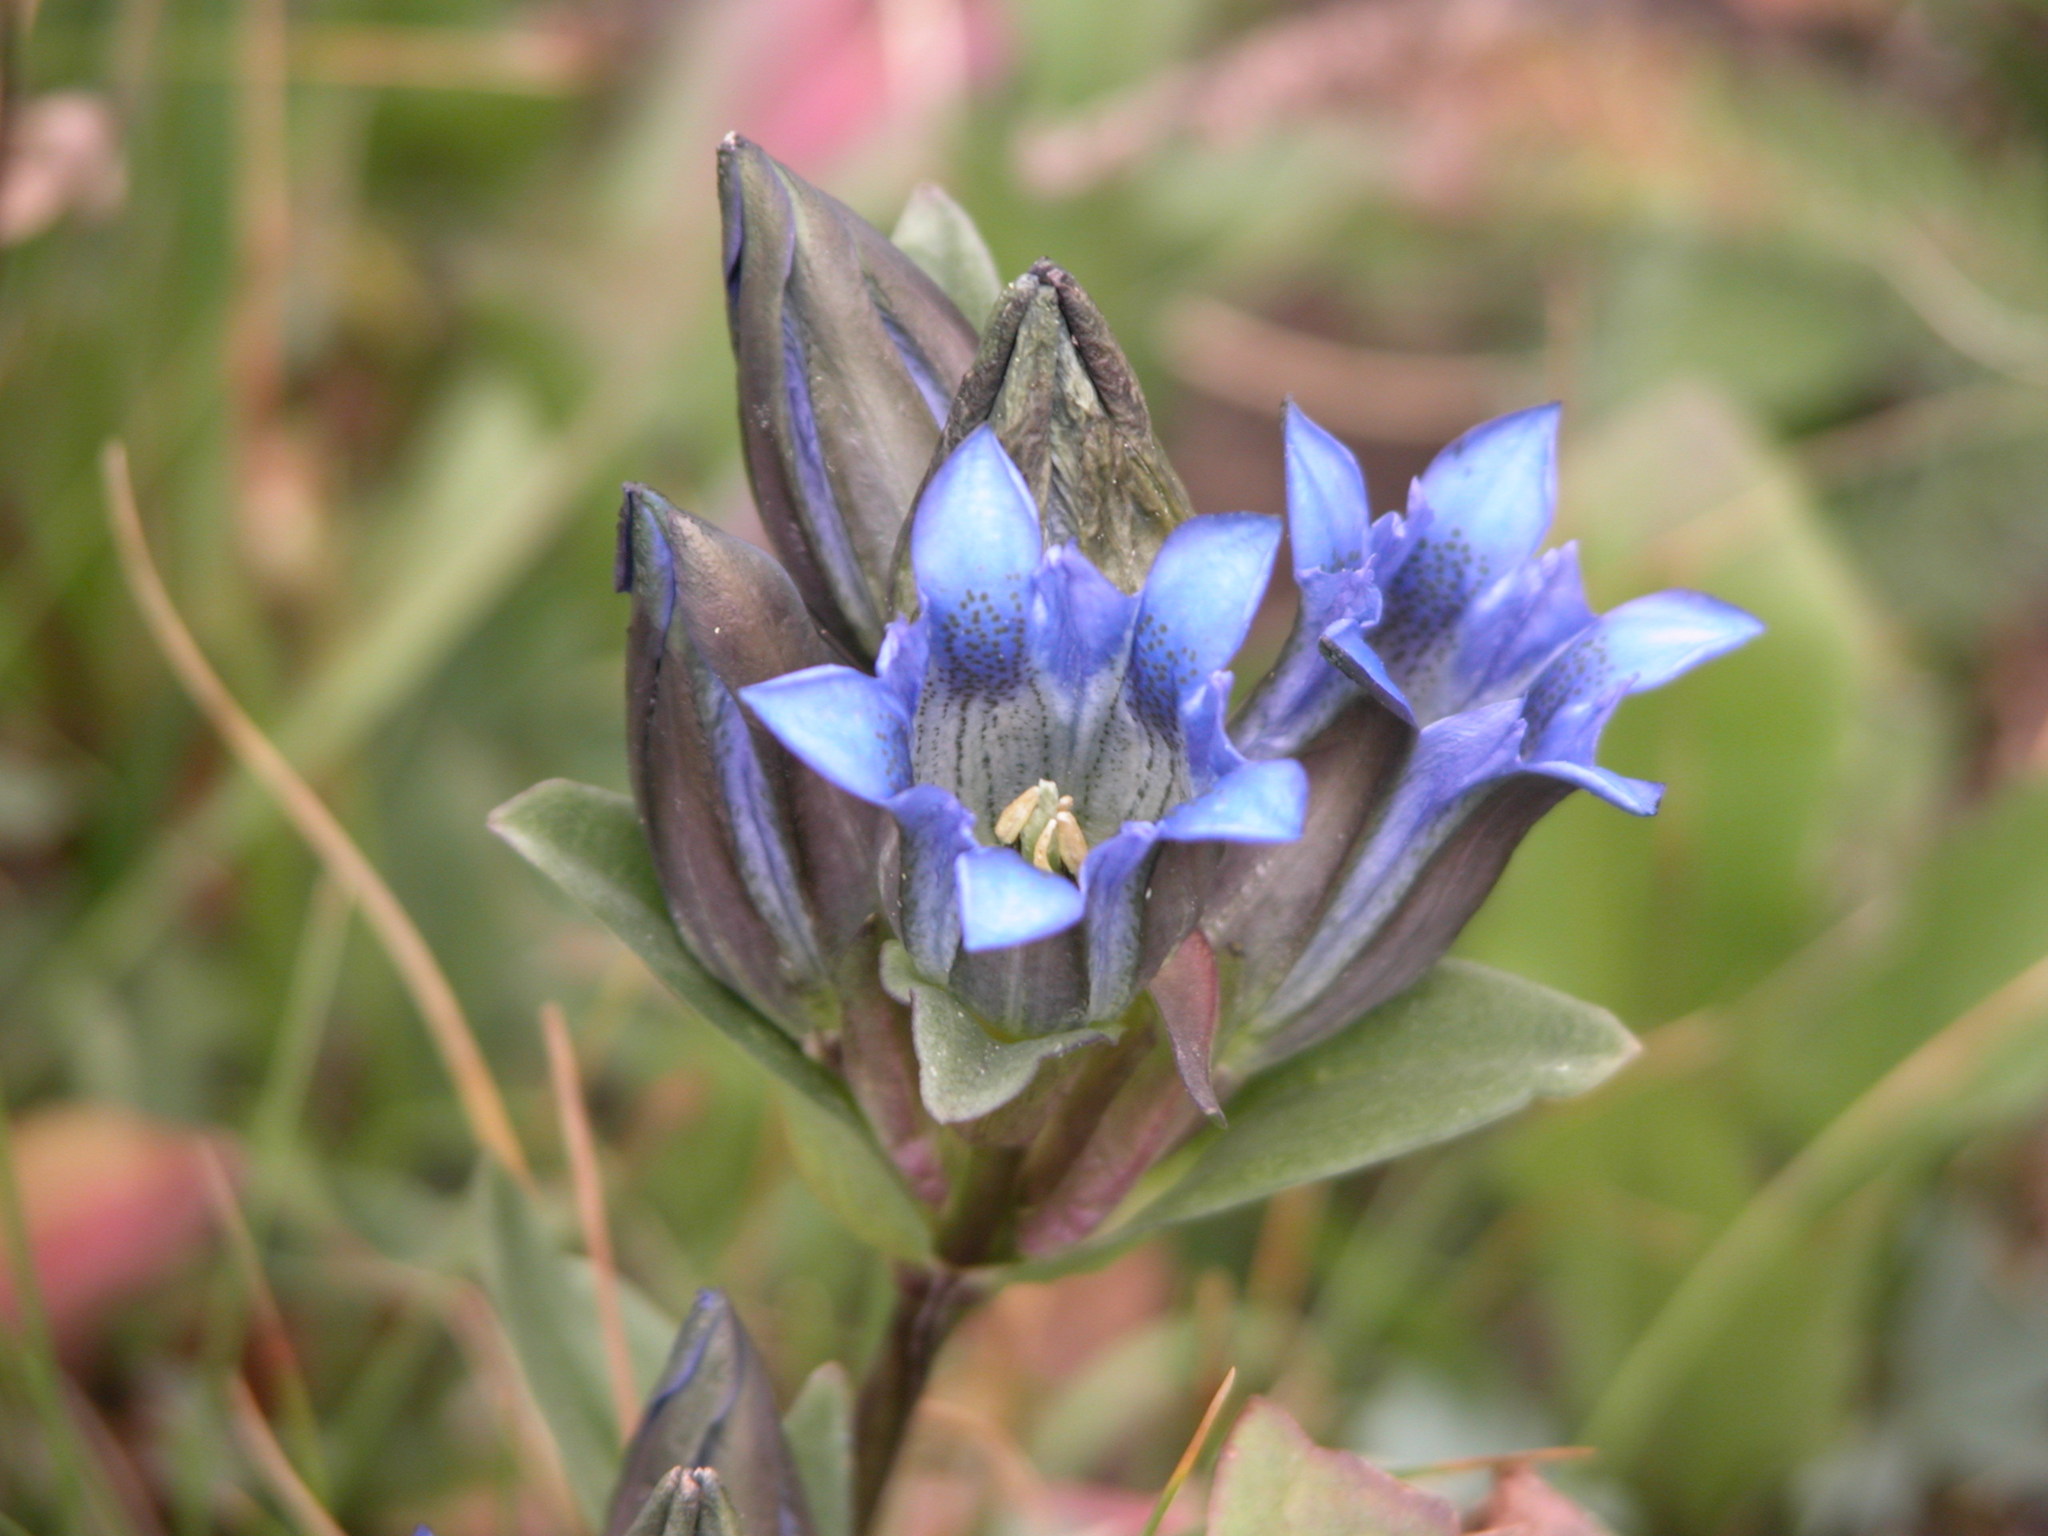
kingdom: Plantae
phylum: Tracheophyta
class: Magnoliopsida
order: Gentianales
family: Gentianaceae
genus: Gentiana
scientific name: Gentiana parryi
